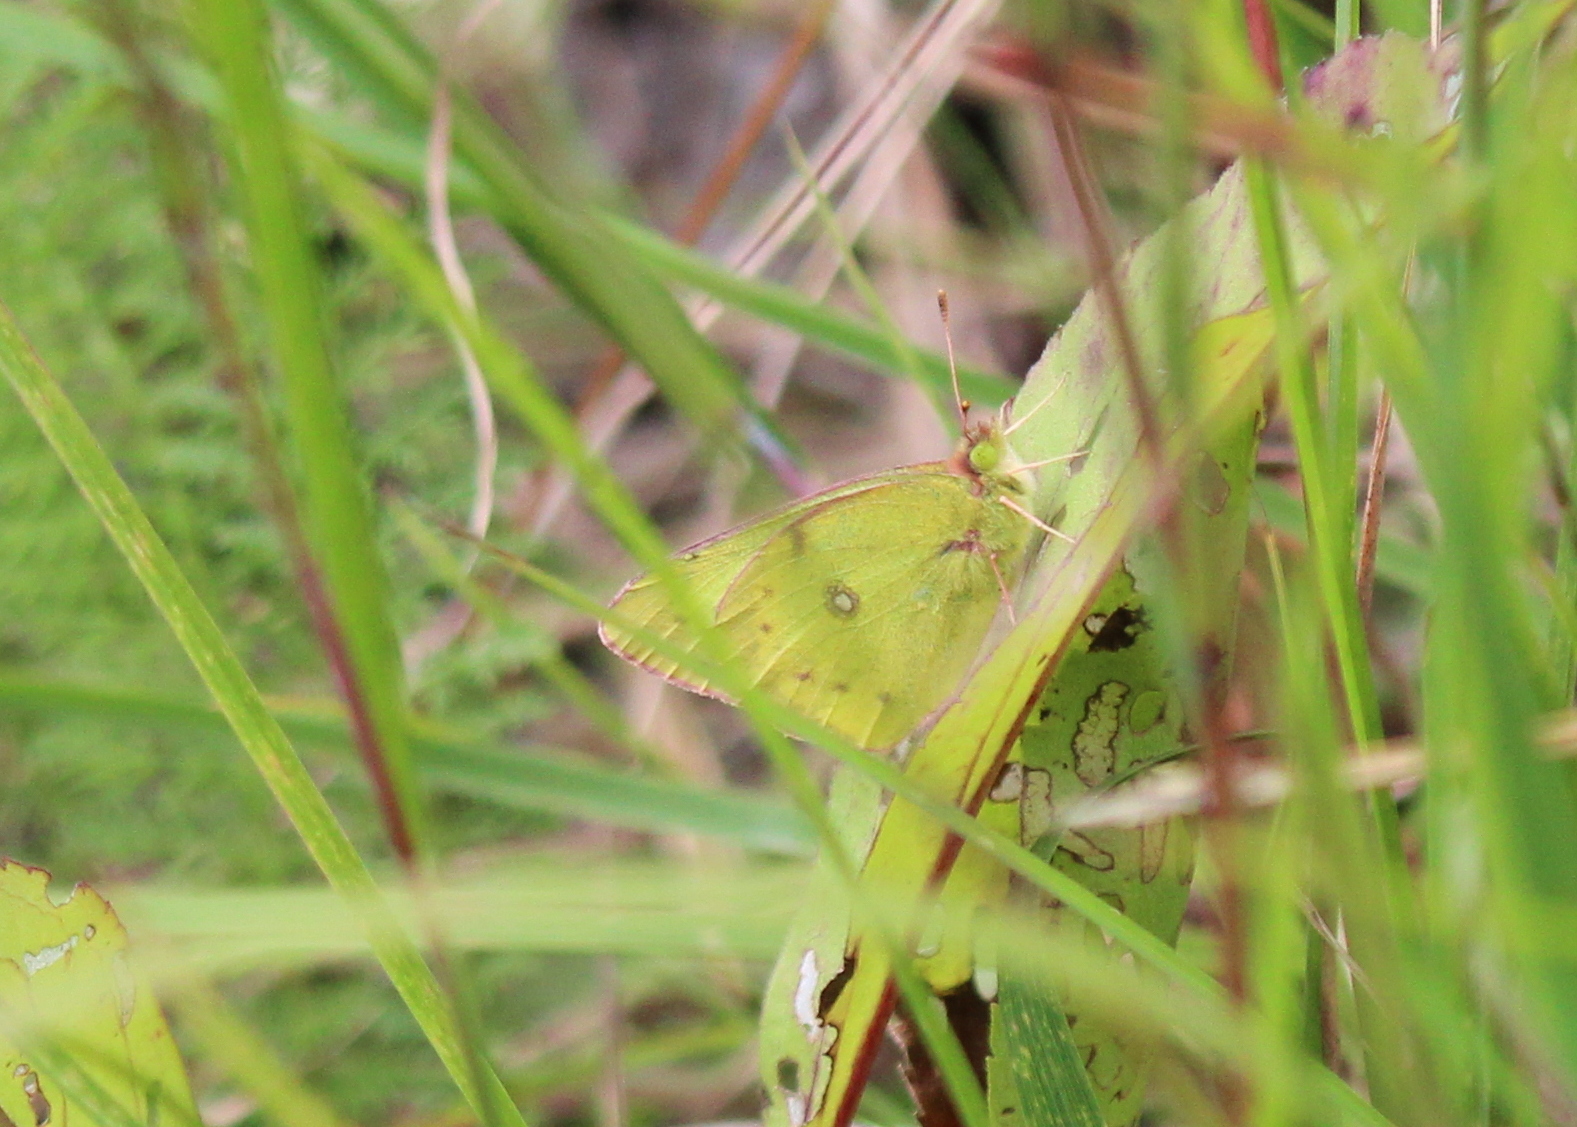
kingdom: Animalia
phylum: Arthropoda
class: Insecta
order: Lepidoptera
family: Pieridae
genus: Colias
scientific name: Colias philodice
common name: Clouded sulphur
